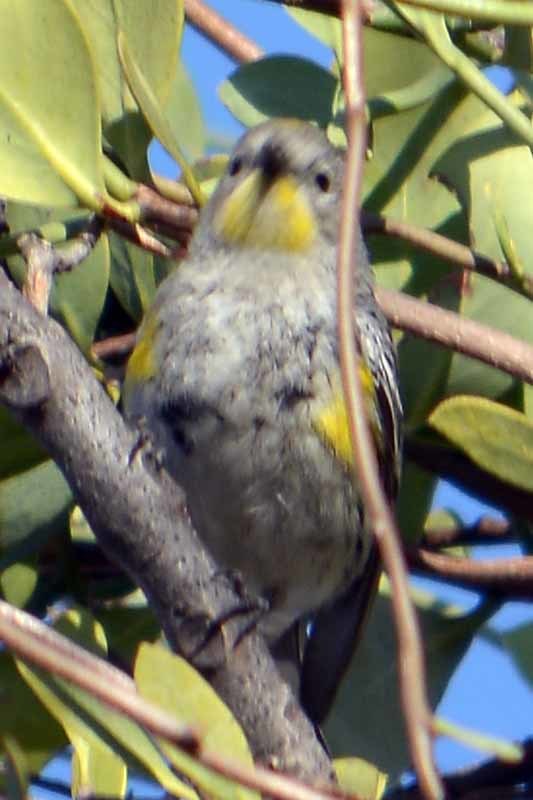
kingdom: Animalia
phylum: Chordata
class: Aves
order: Passeriformes
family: Parulidae
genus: Setophaga
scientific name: Setophaga coronata
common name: Myrtle warbler
